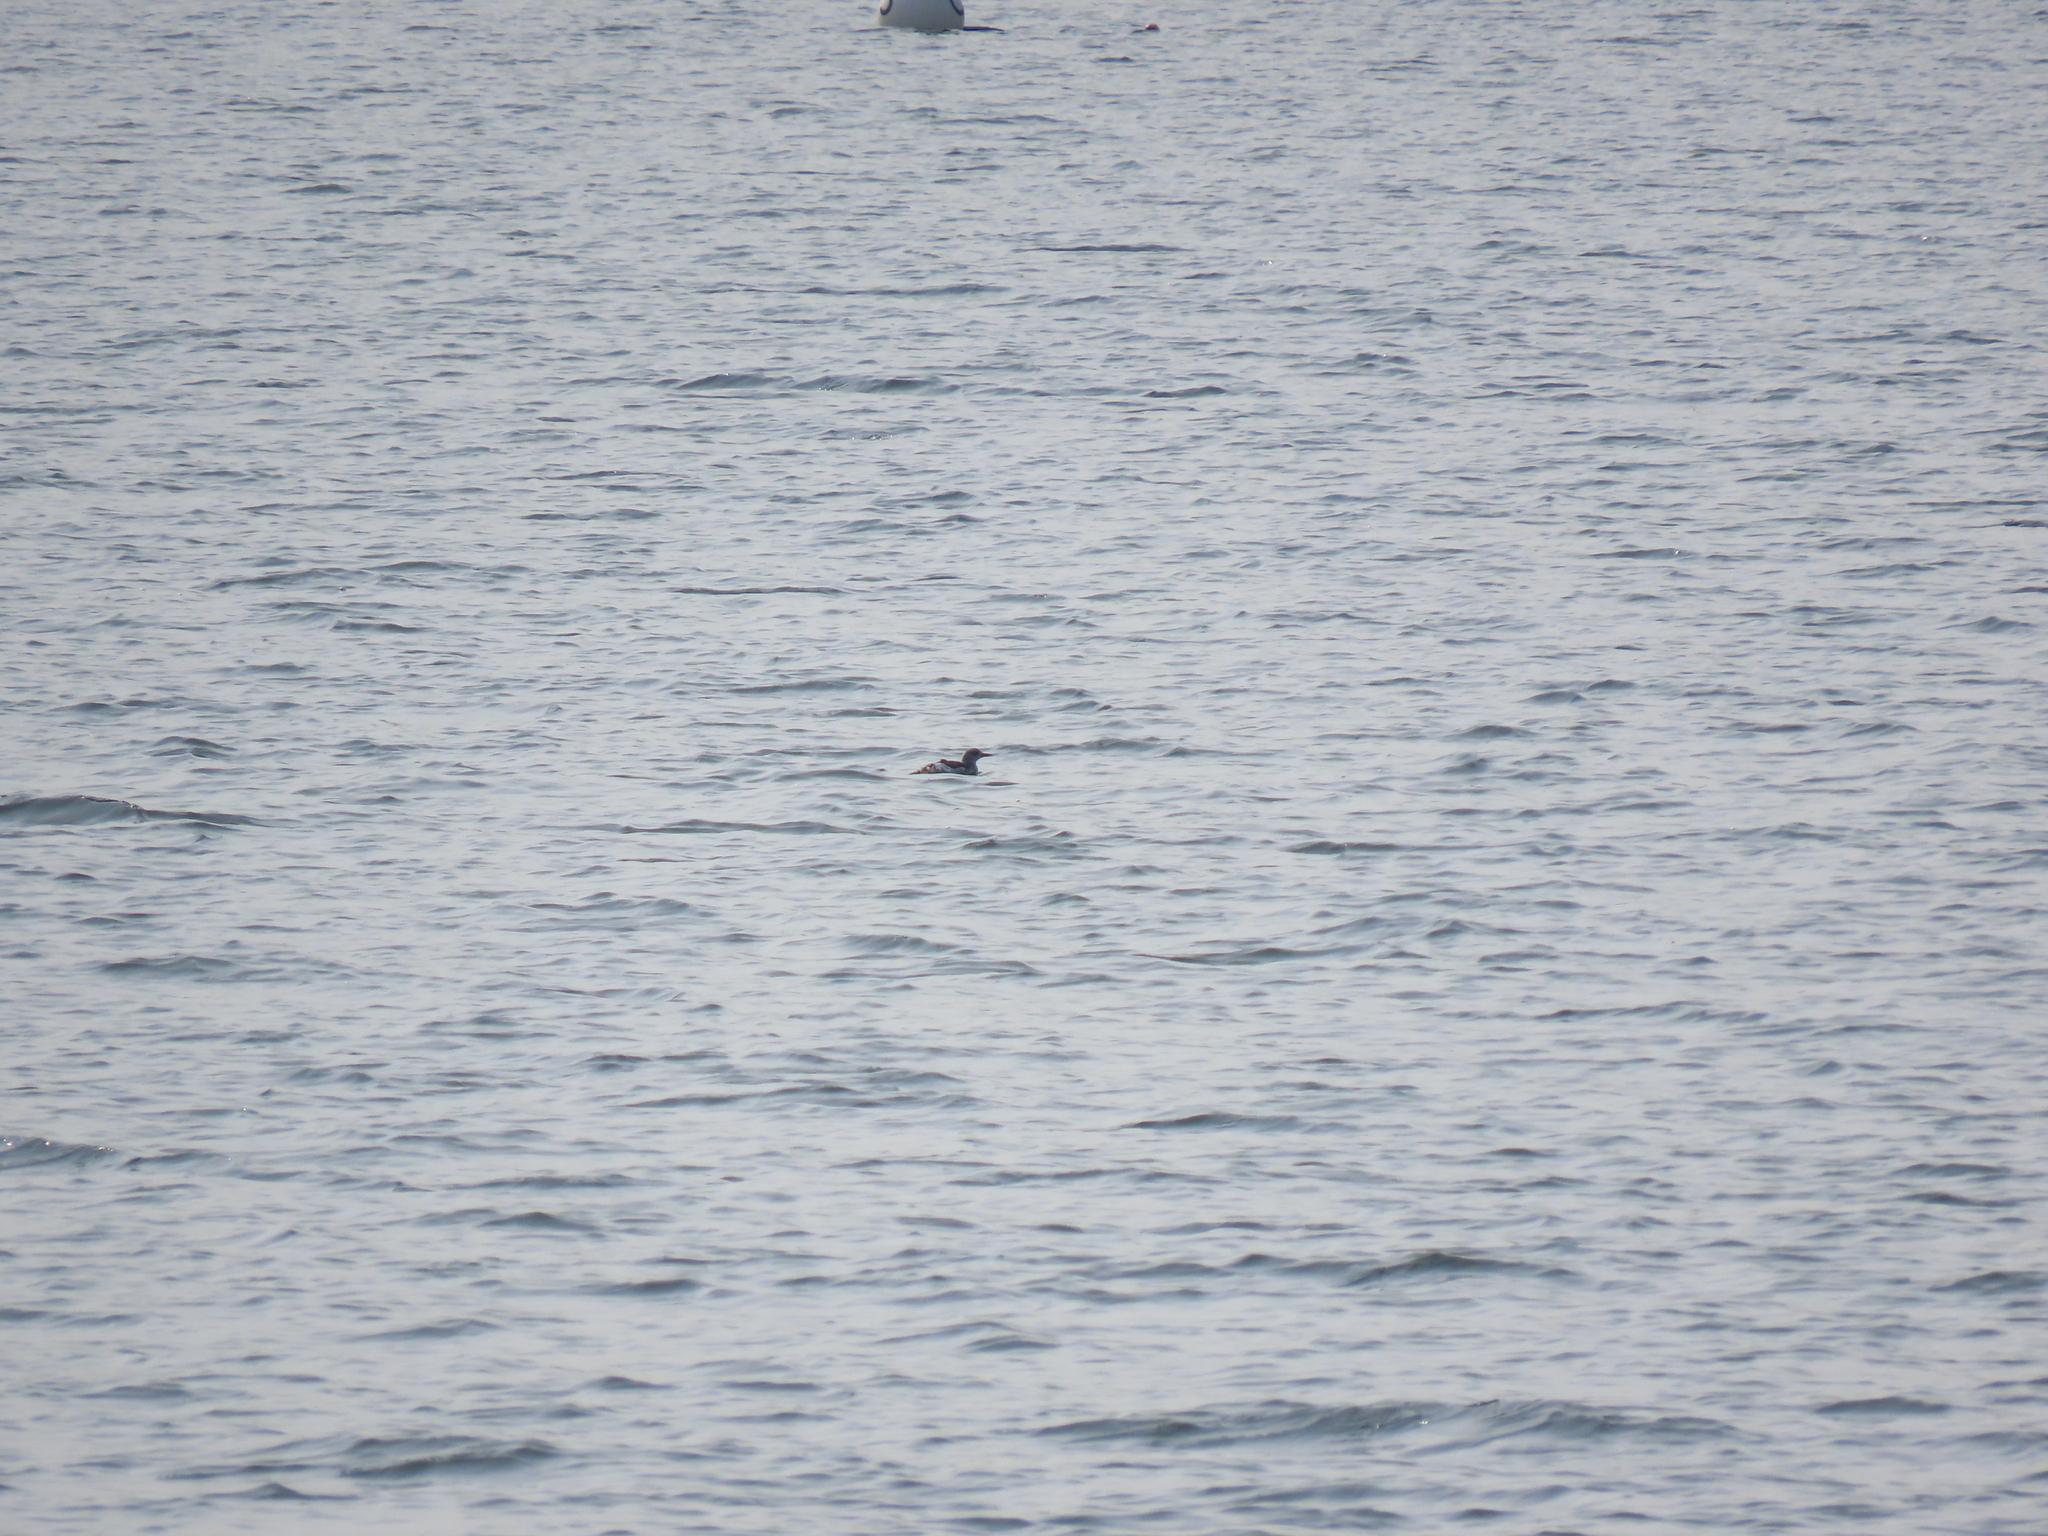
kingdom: Animalia
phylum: Chordata
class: Aves
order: Charadriiformes
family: Alcidae
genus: Cepphus
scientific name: Cepphus grylle
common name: Black guillemot
